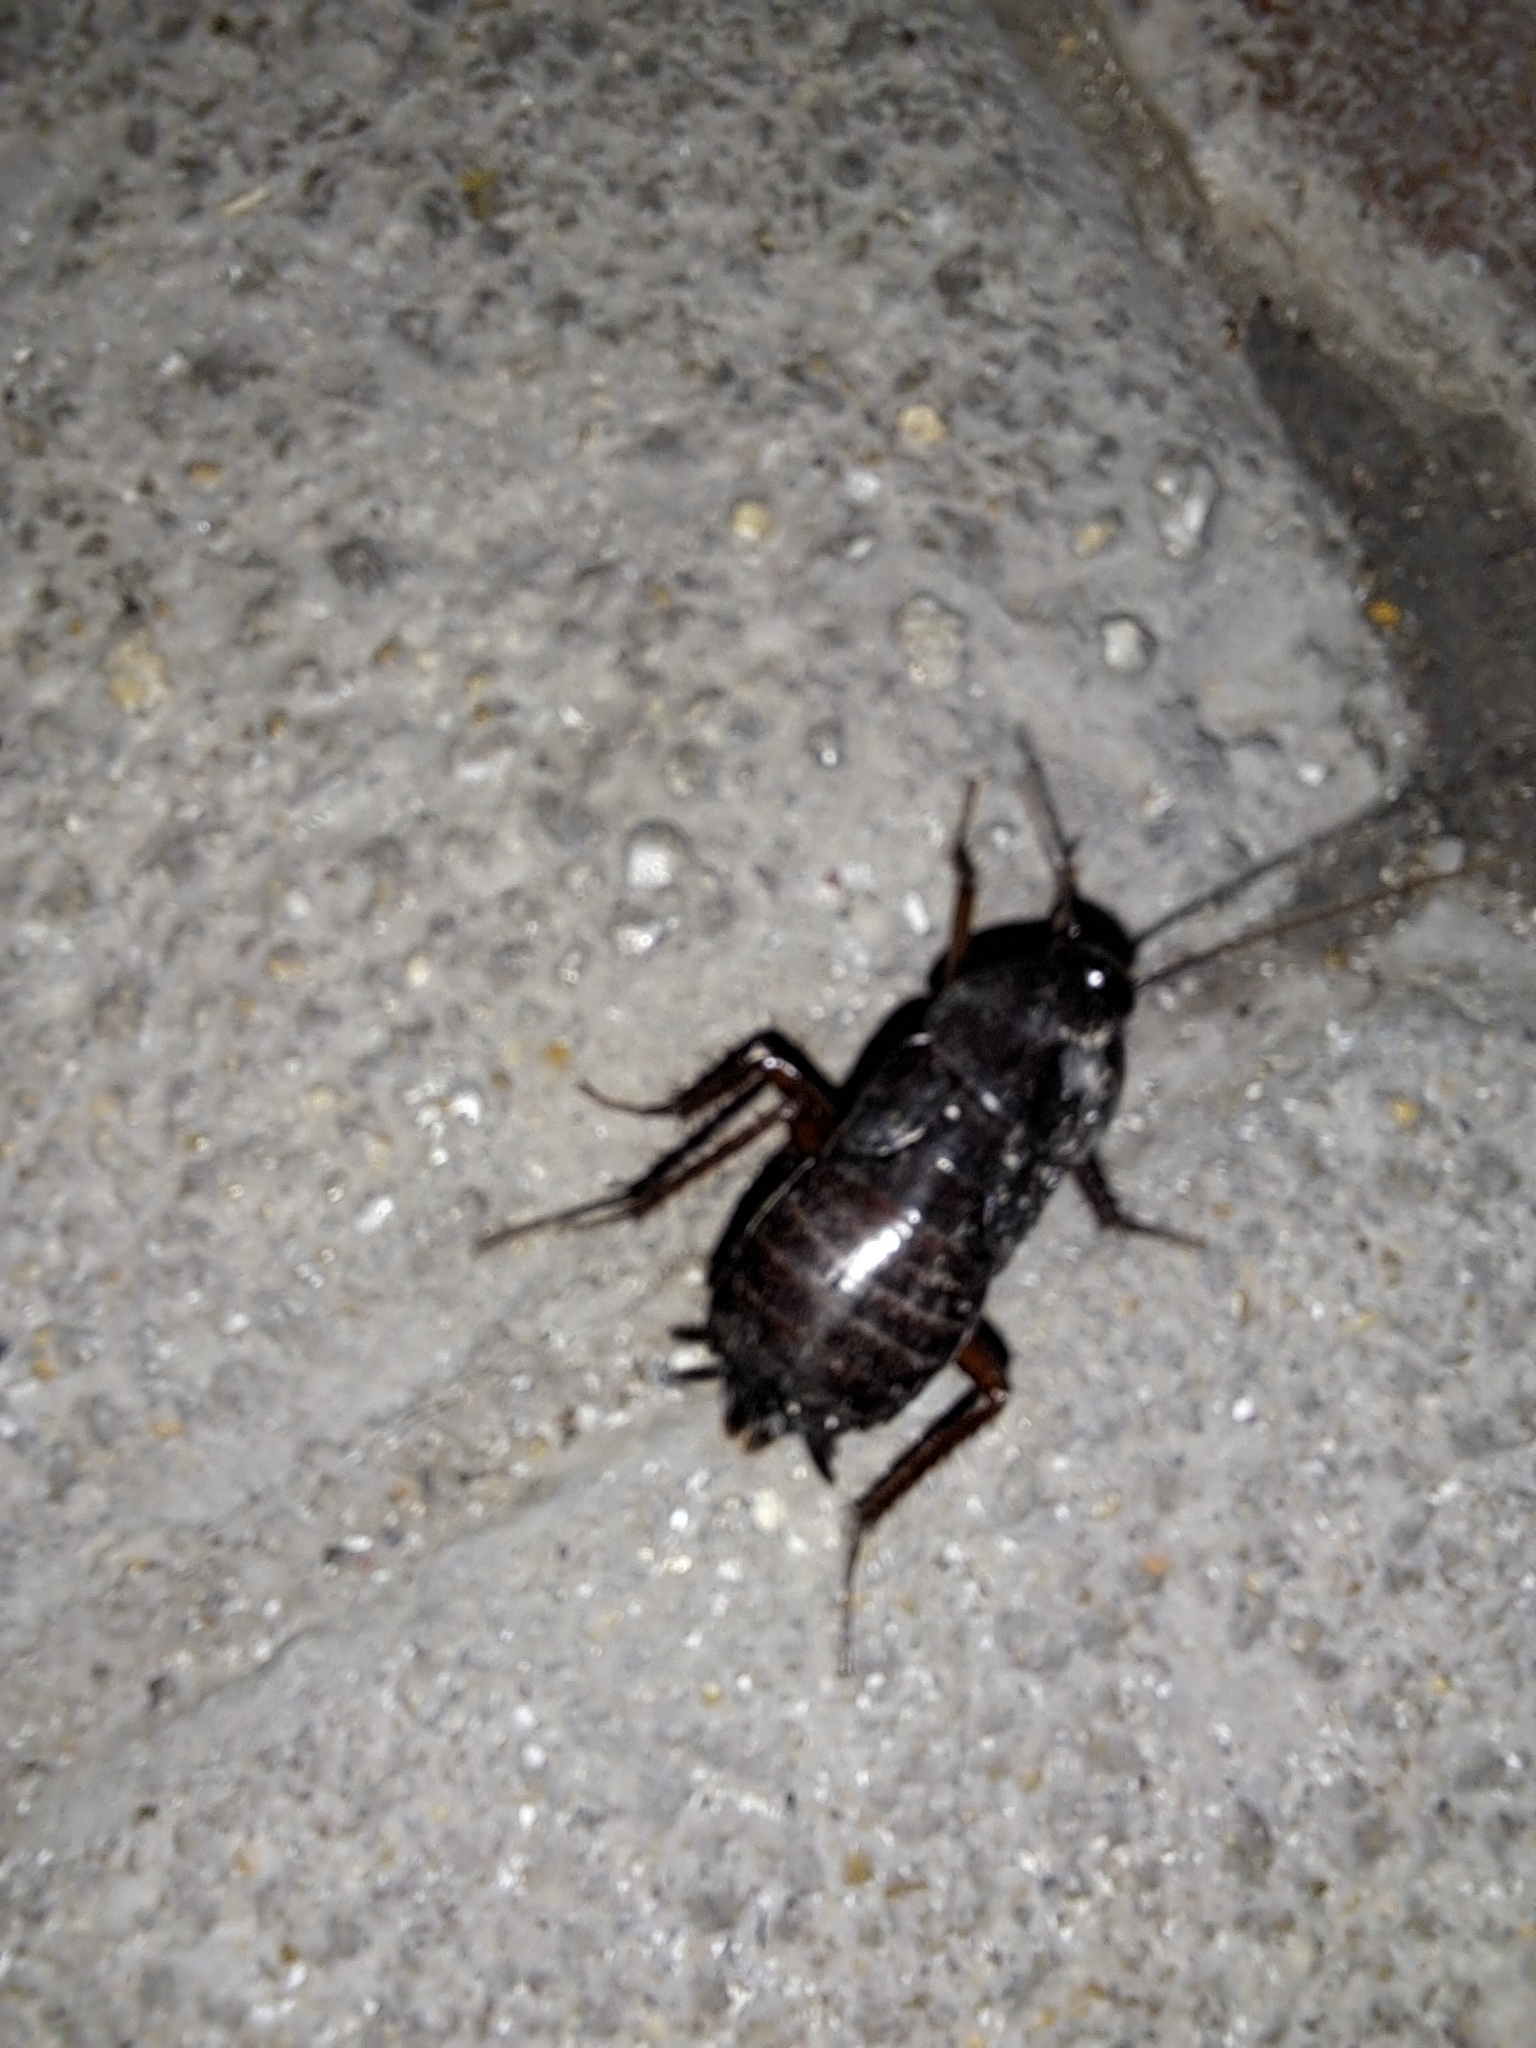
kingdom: Animalia
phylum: Arthropoda
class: Insecta
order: Blattodea
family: Blattidae
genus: Blatta
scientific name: Blatta orientalis
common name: Oriental cockroach
